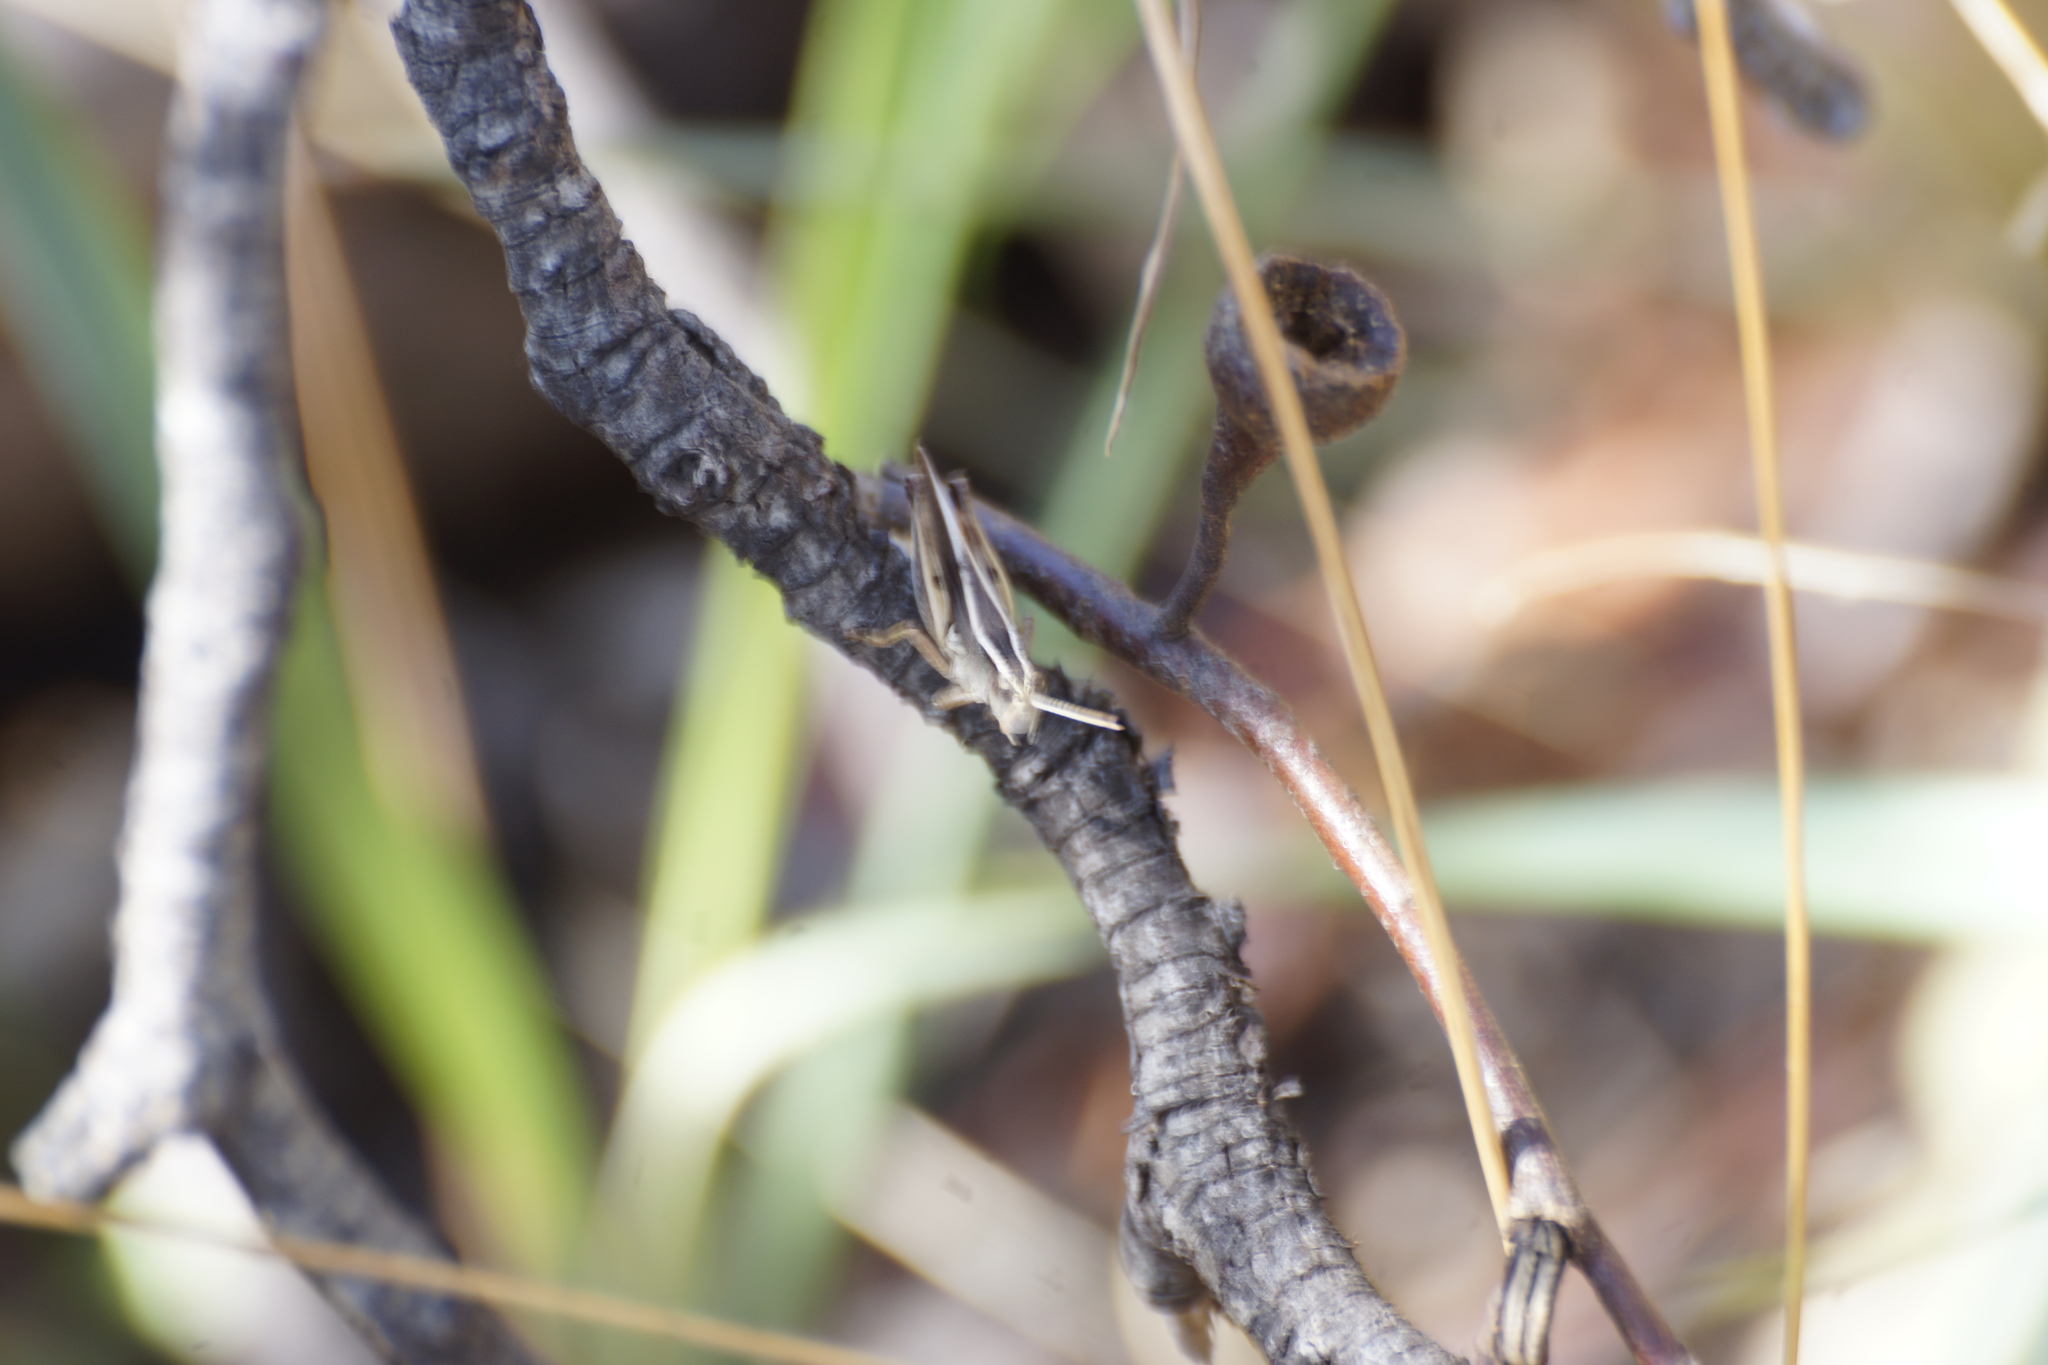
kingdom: Animalia
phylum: Arthropoda
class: Insecta
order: Orthoptera
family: Acrididae
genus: Phaulacridium
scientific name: Phaulacridium vittatum
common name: Wingless grasshopper
